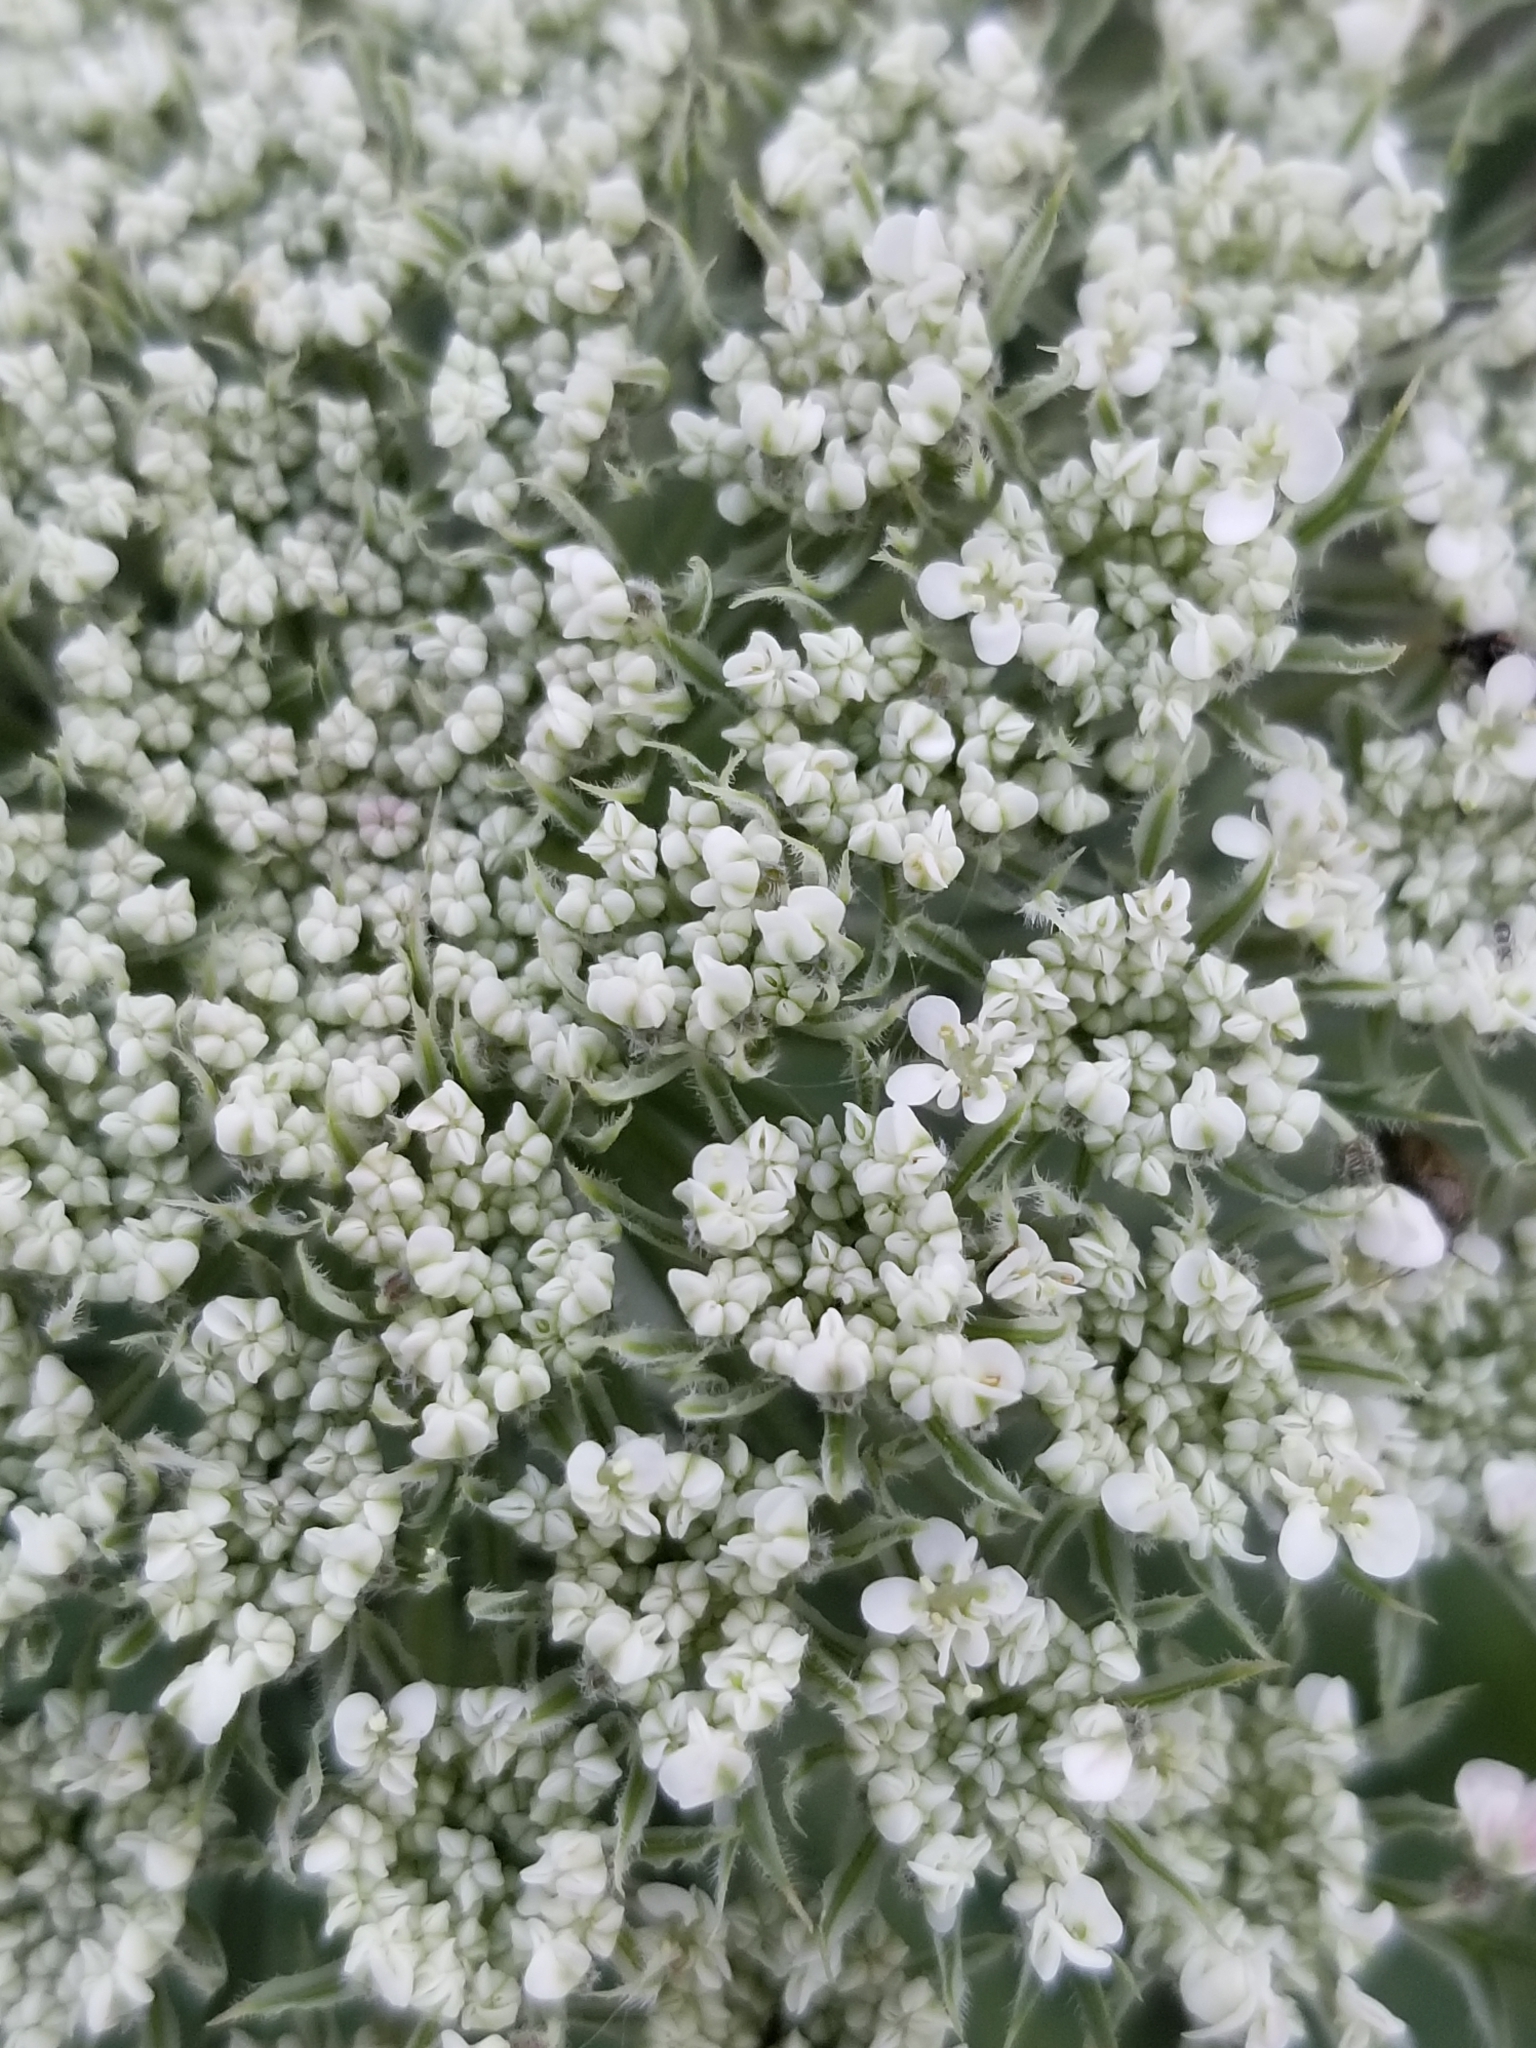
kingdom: Plantae
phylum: Tracheophyta
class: Magnoliopsida
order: Apiales
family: Apiaceae
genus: Daucus
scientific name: Daucus carota
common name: Wild carrot
